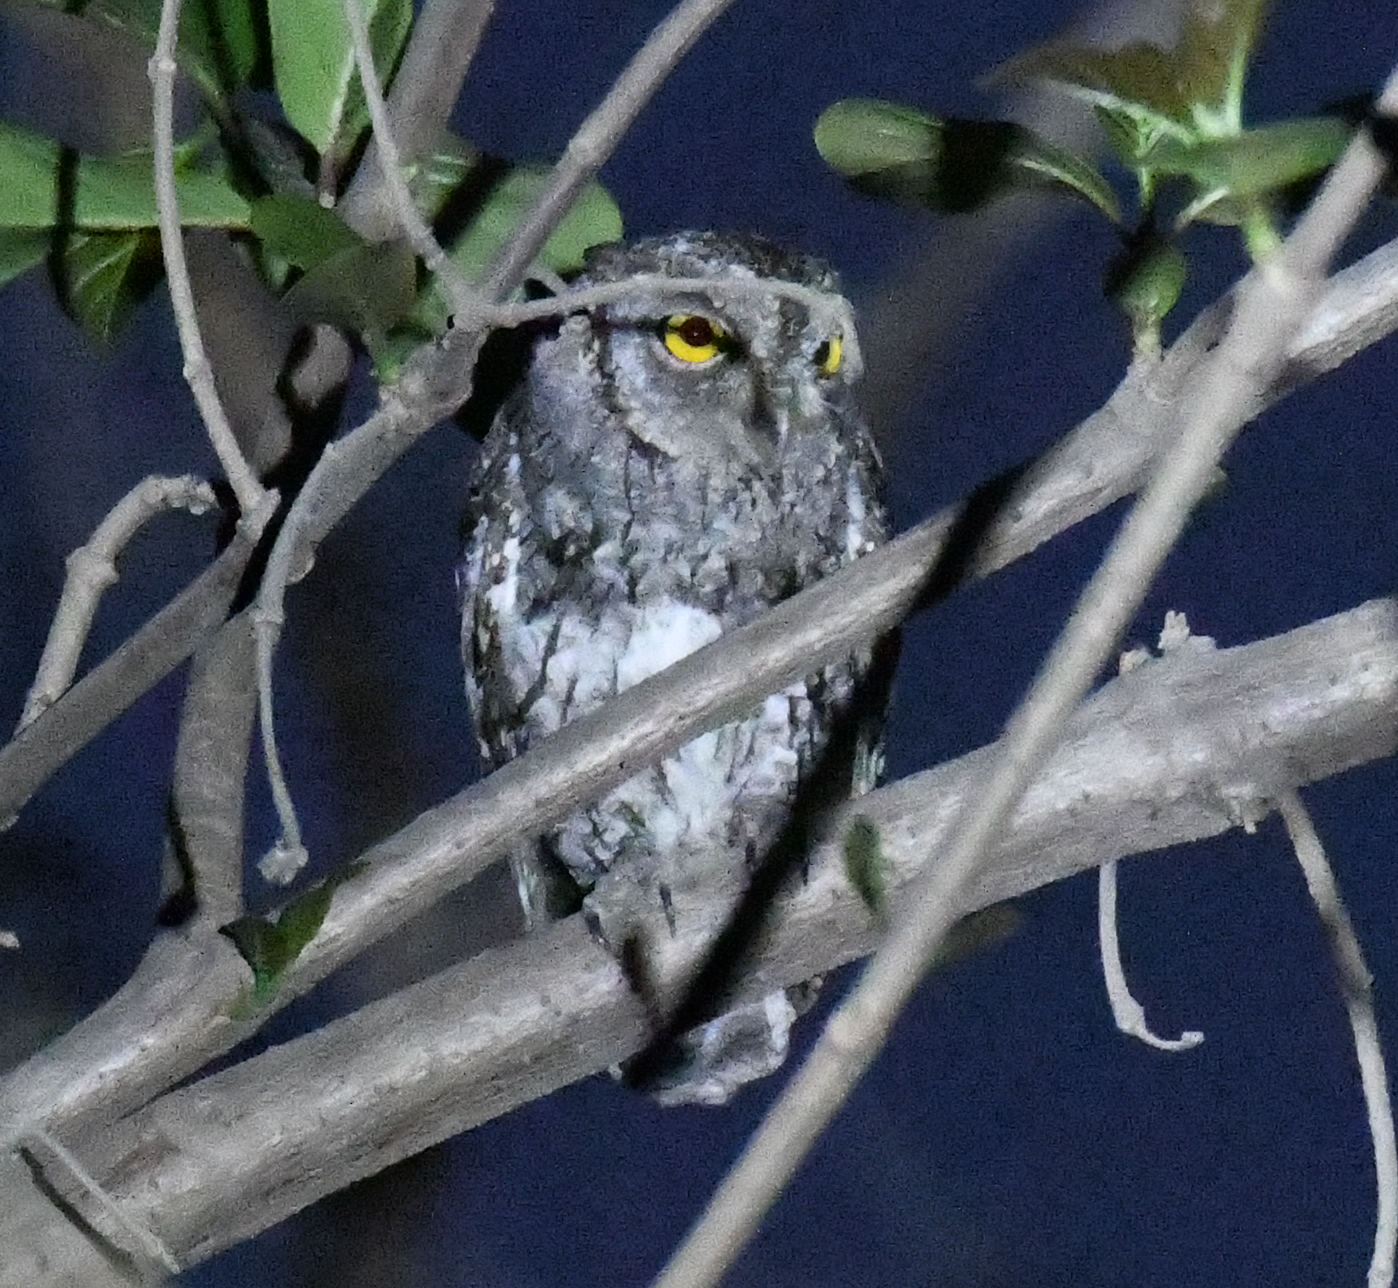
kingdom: Animalia
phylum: Chordata
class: Aves
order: Strigiformes
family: Strigidae
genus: Otus
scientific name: Otus senegalensis
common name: African scops owl
